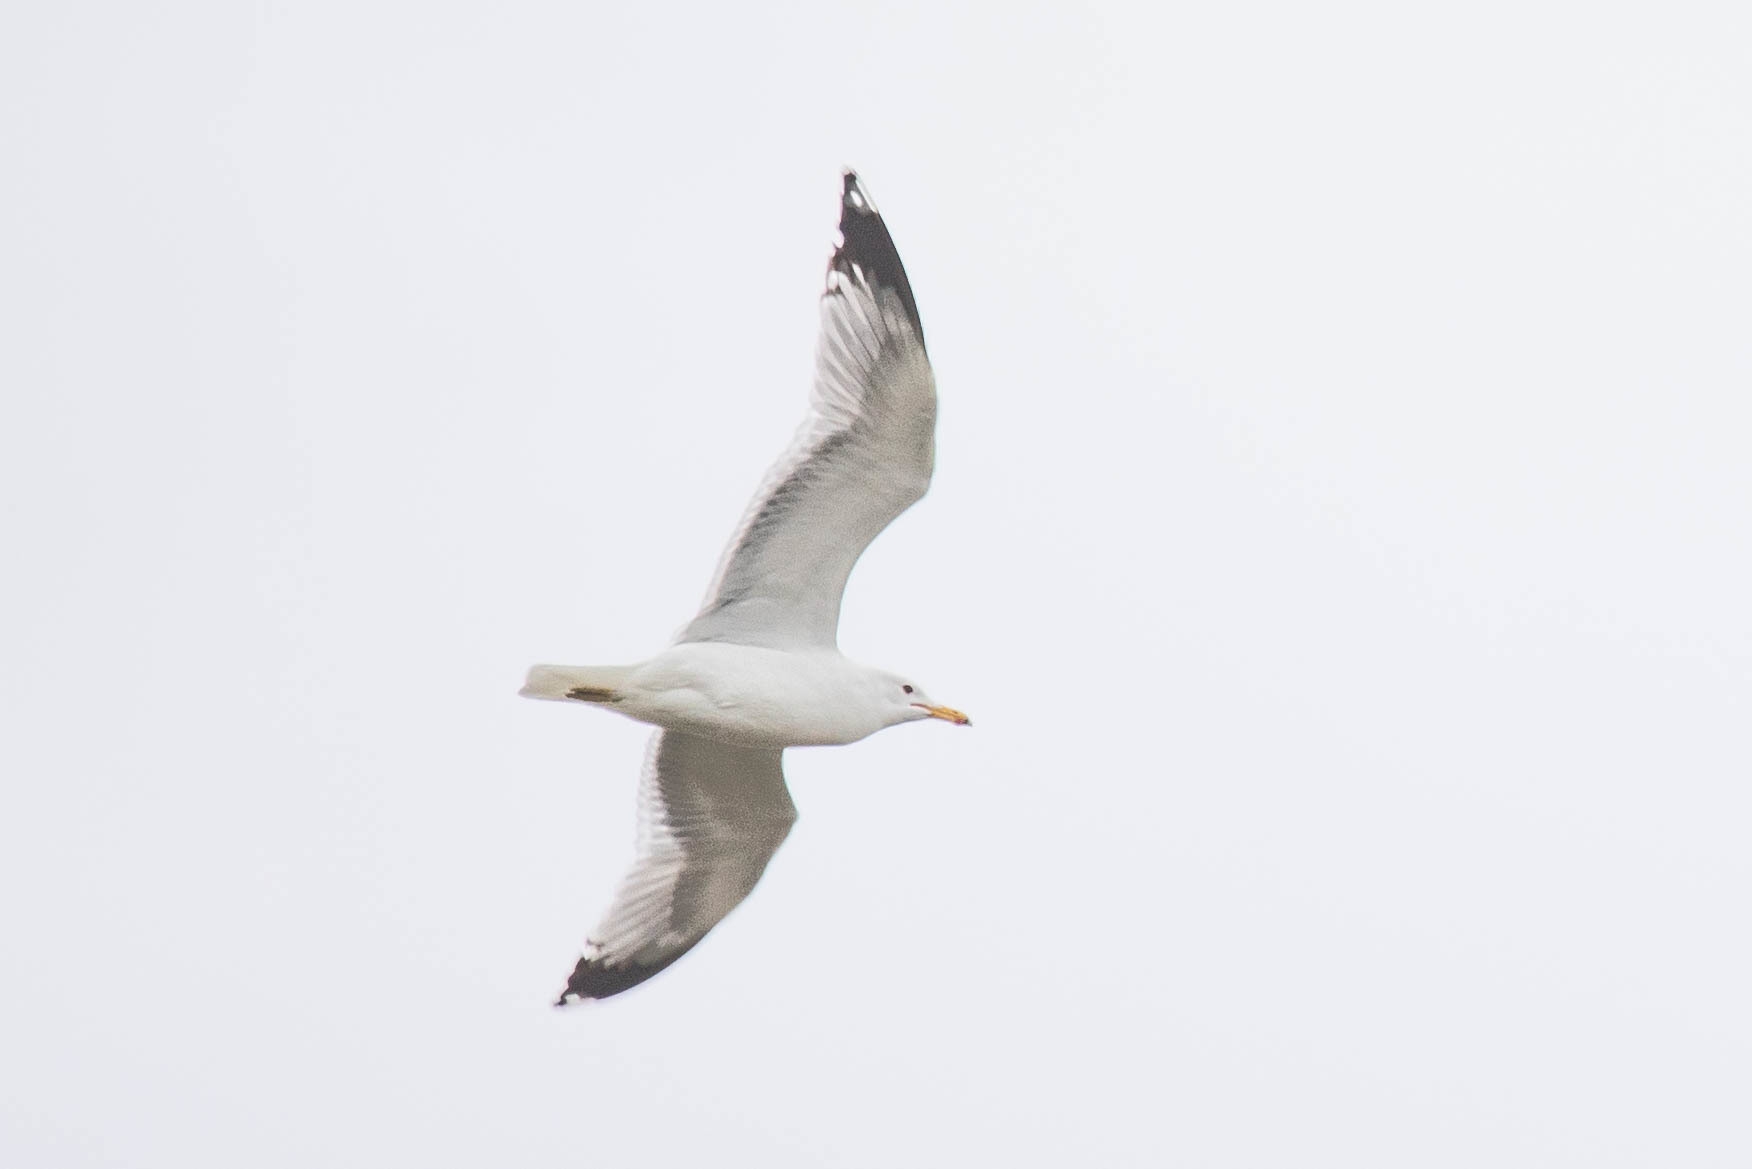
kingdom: Animalia
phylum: Chordata
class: Aves
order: Charadriiformes
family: Laridae
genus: Larus
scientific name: Larus californicus
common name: California gull
